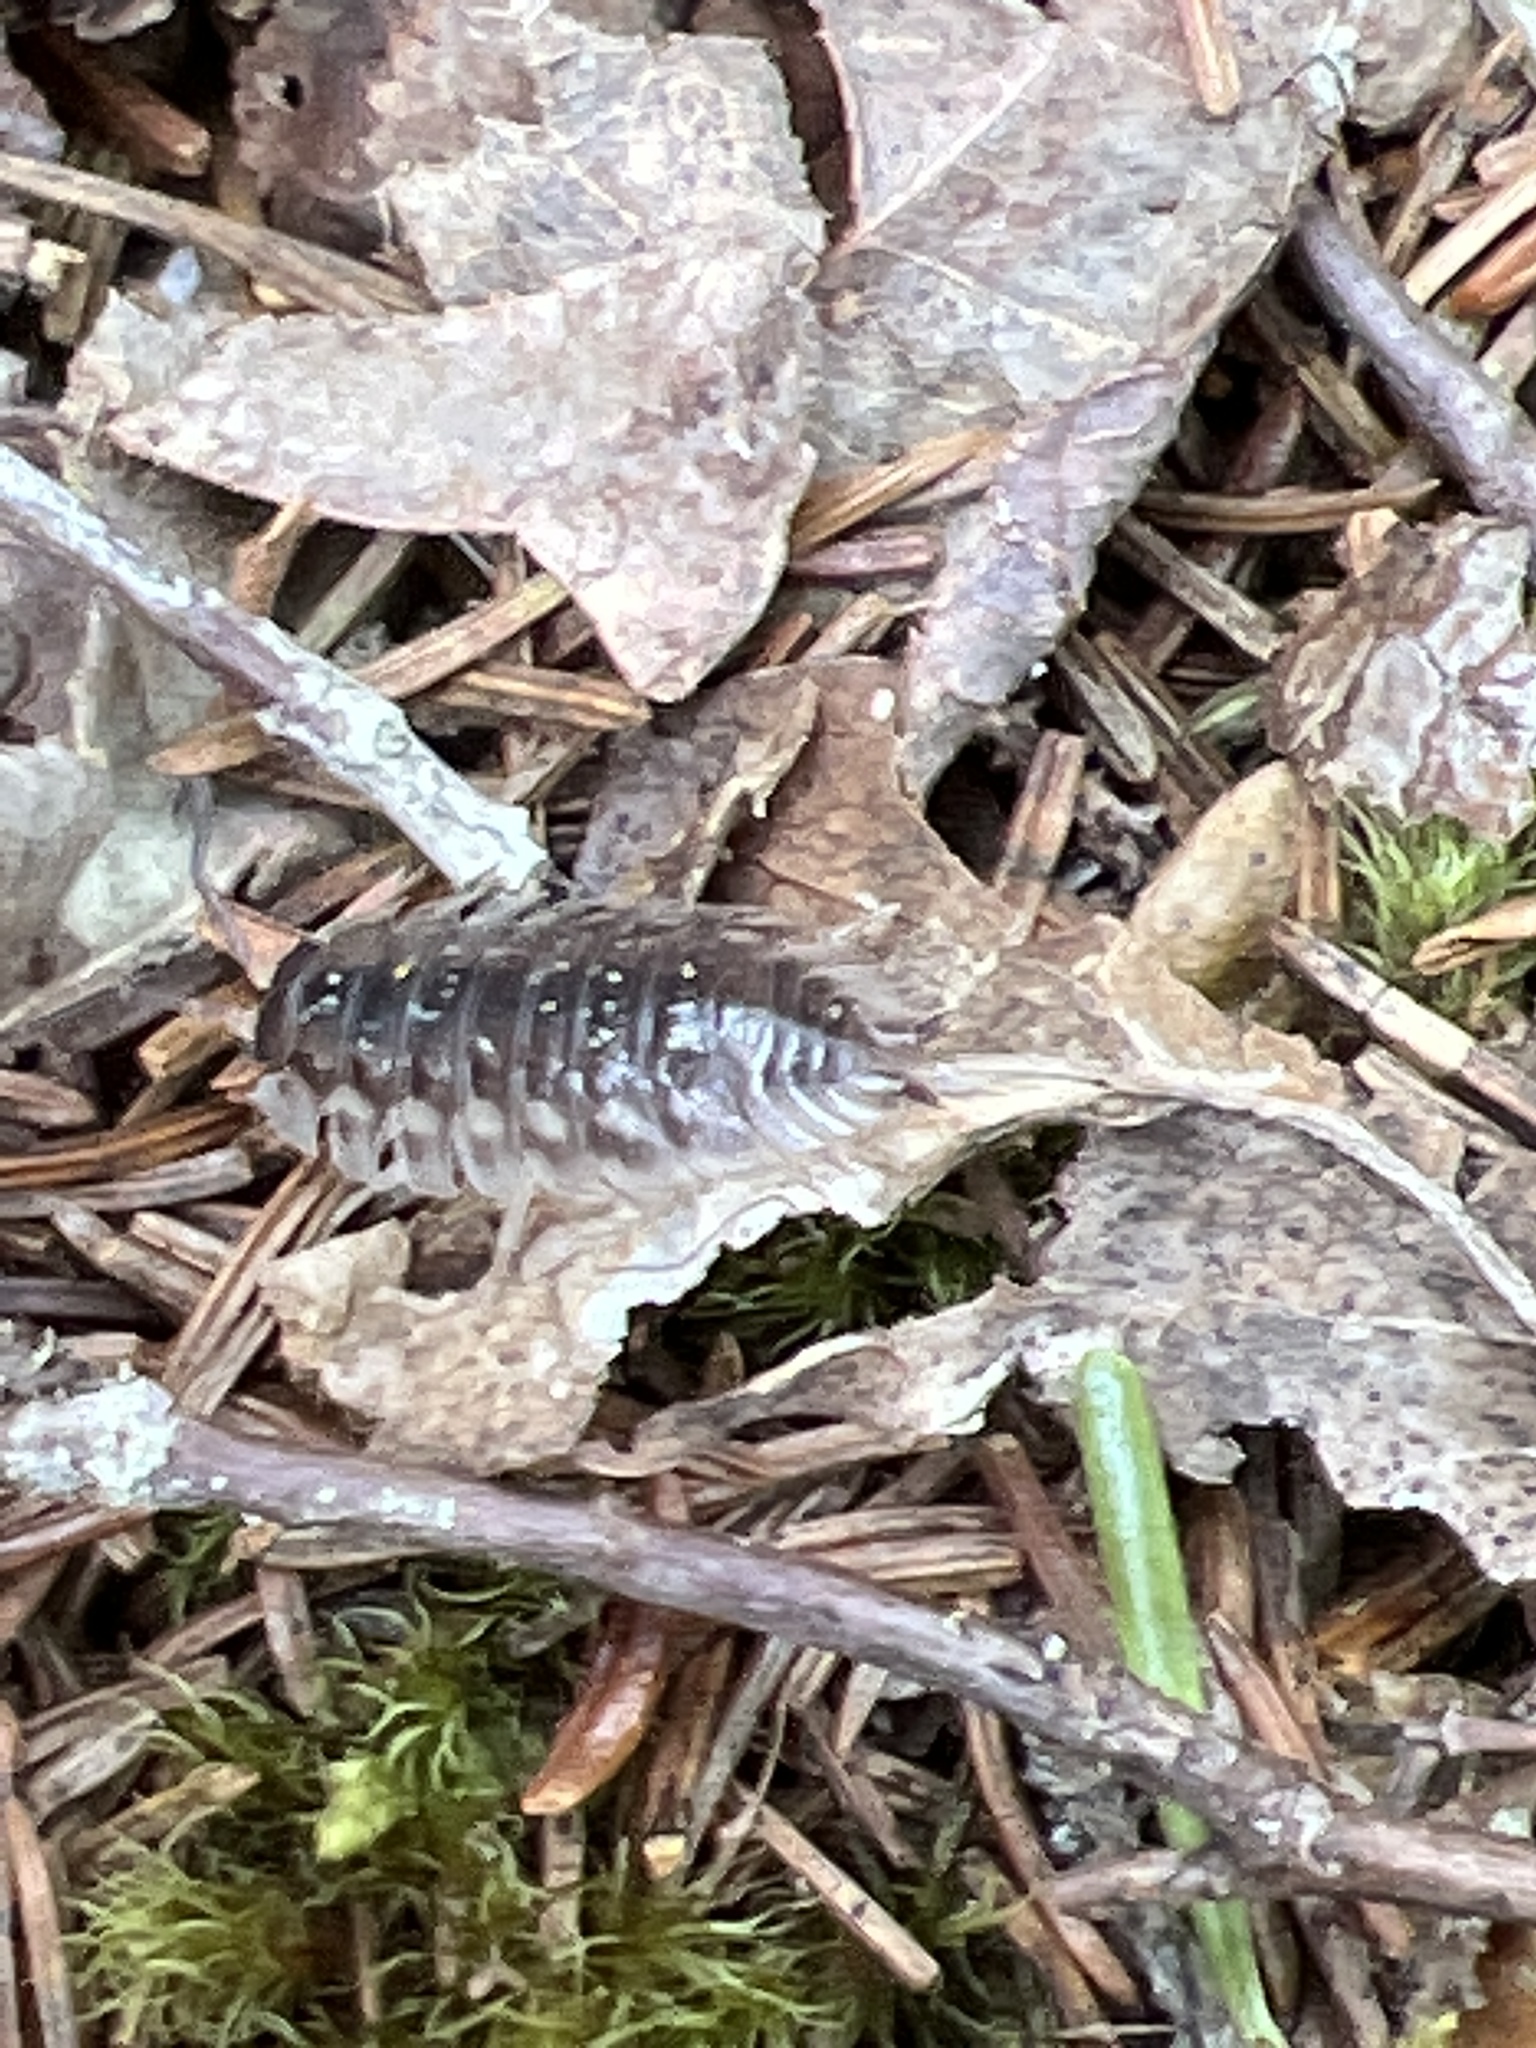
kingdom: Animalia
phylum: Arthropoda
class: Malacostraca
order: Isopoda
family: Oniscidae
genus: Oniscus
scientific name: Oniscus asellus
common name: Common shiny woodlouse
